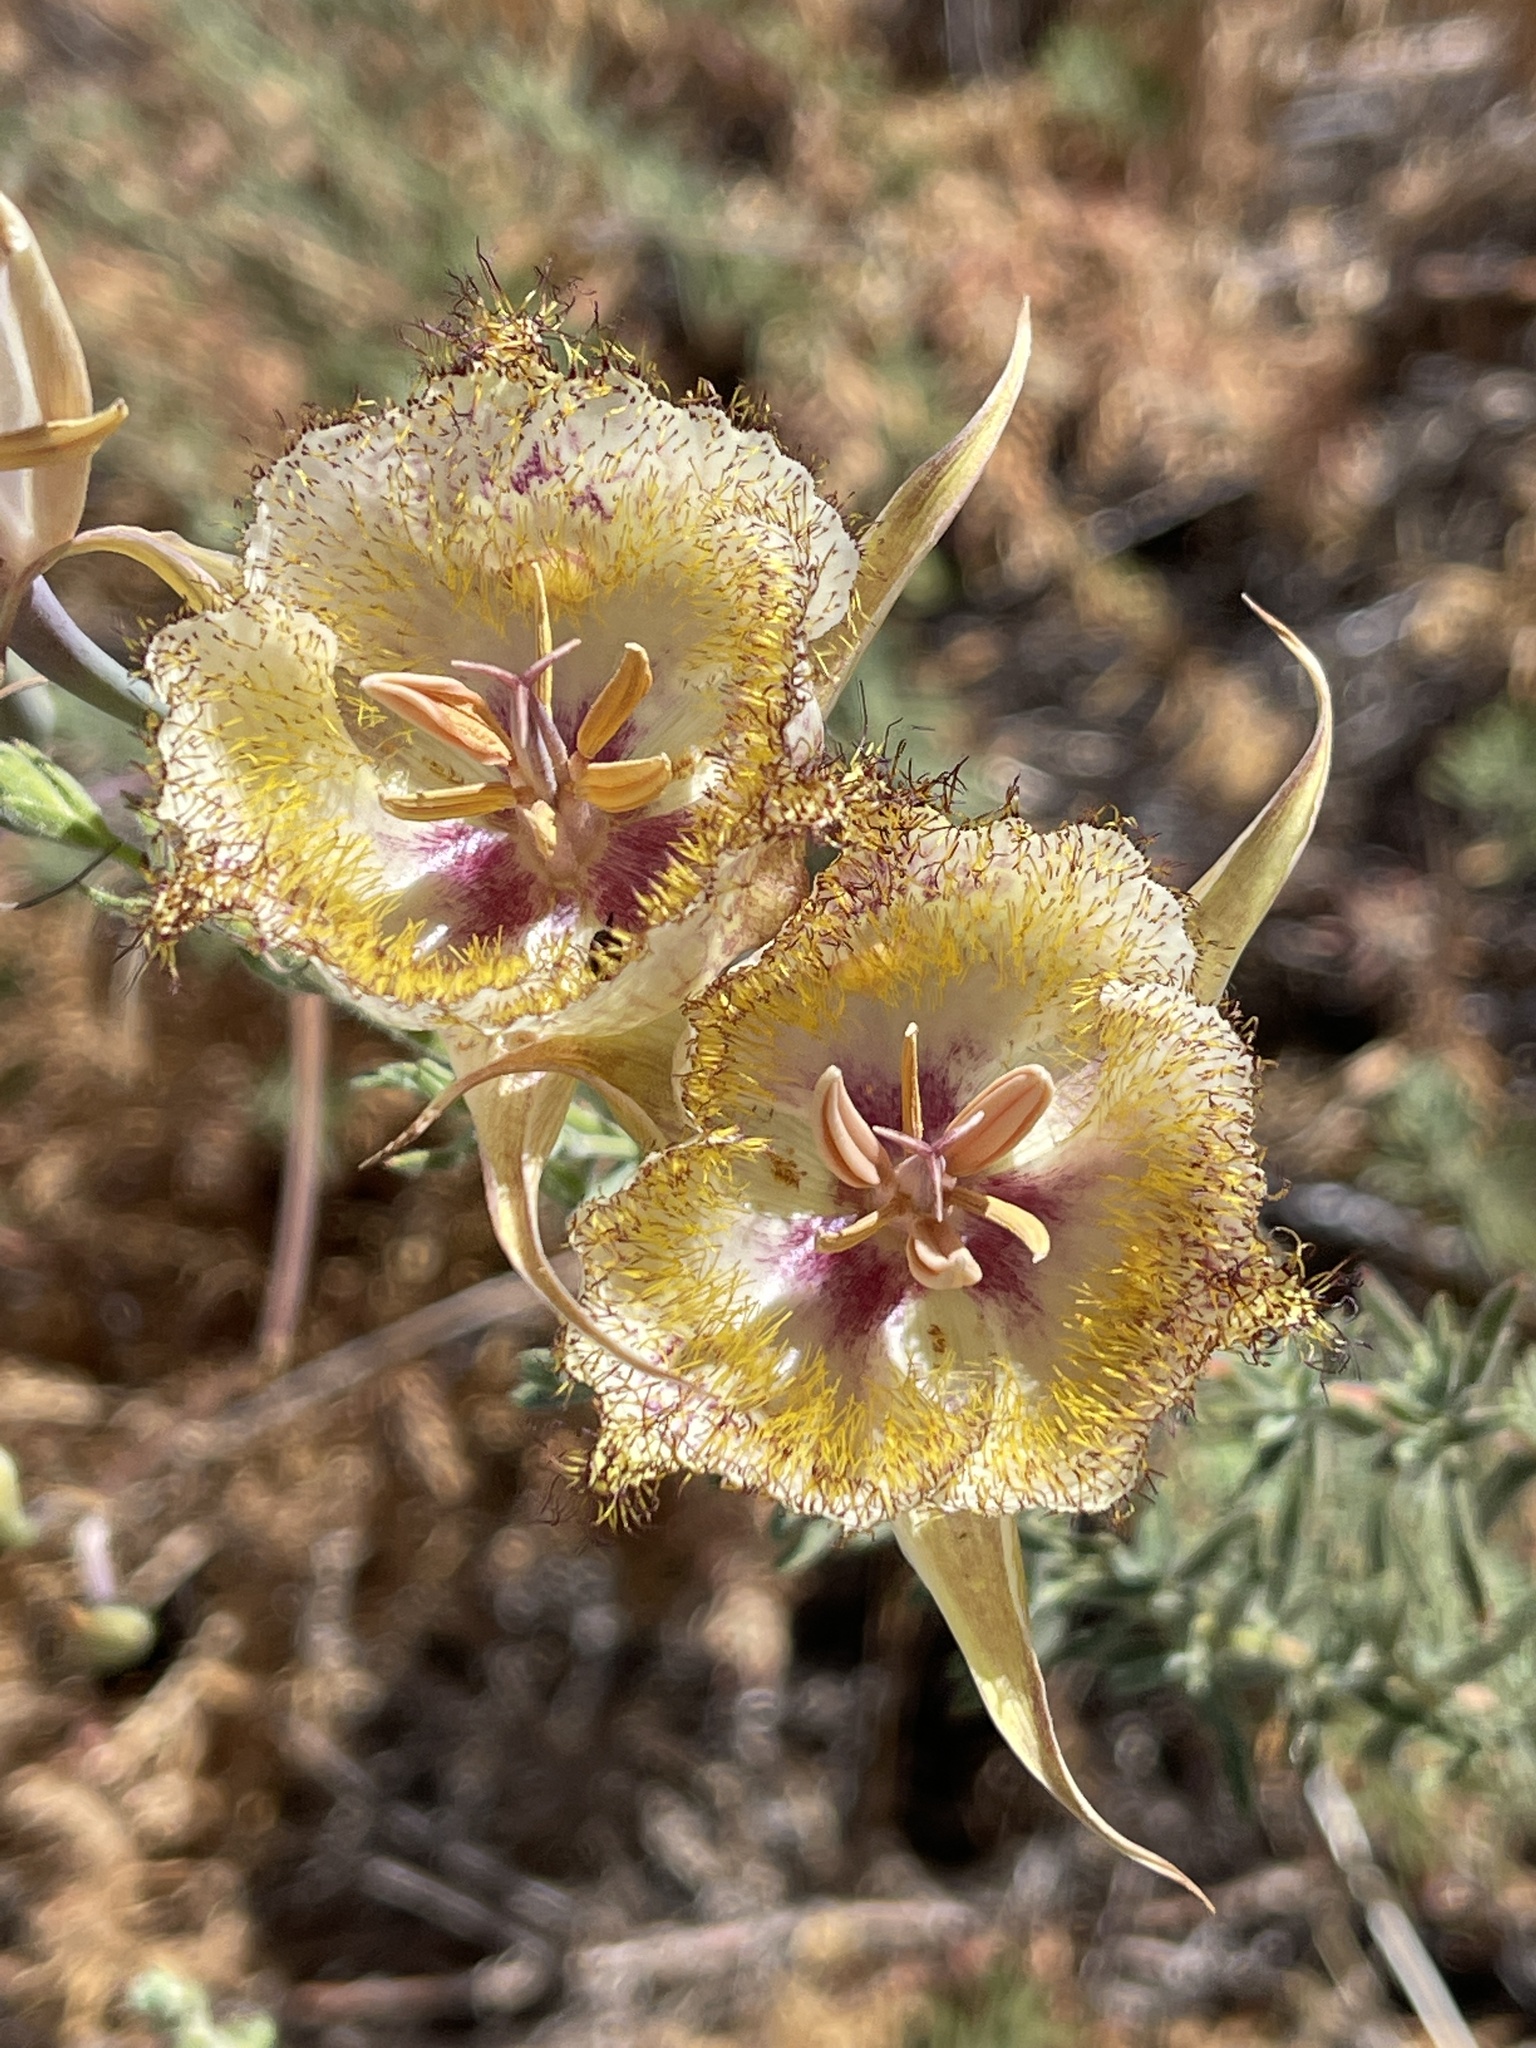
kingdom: Plantae
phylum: Tracheophyta
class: Liliopsida
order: Liliales
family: Liliaceae
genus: Calochortus
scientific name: Calochortus fimbriatus
